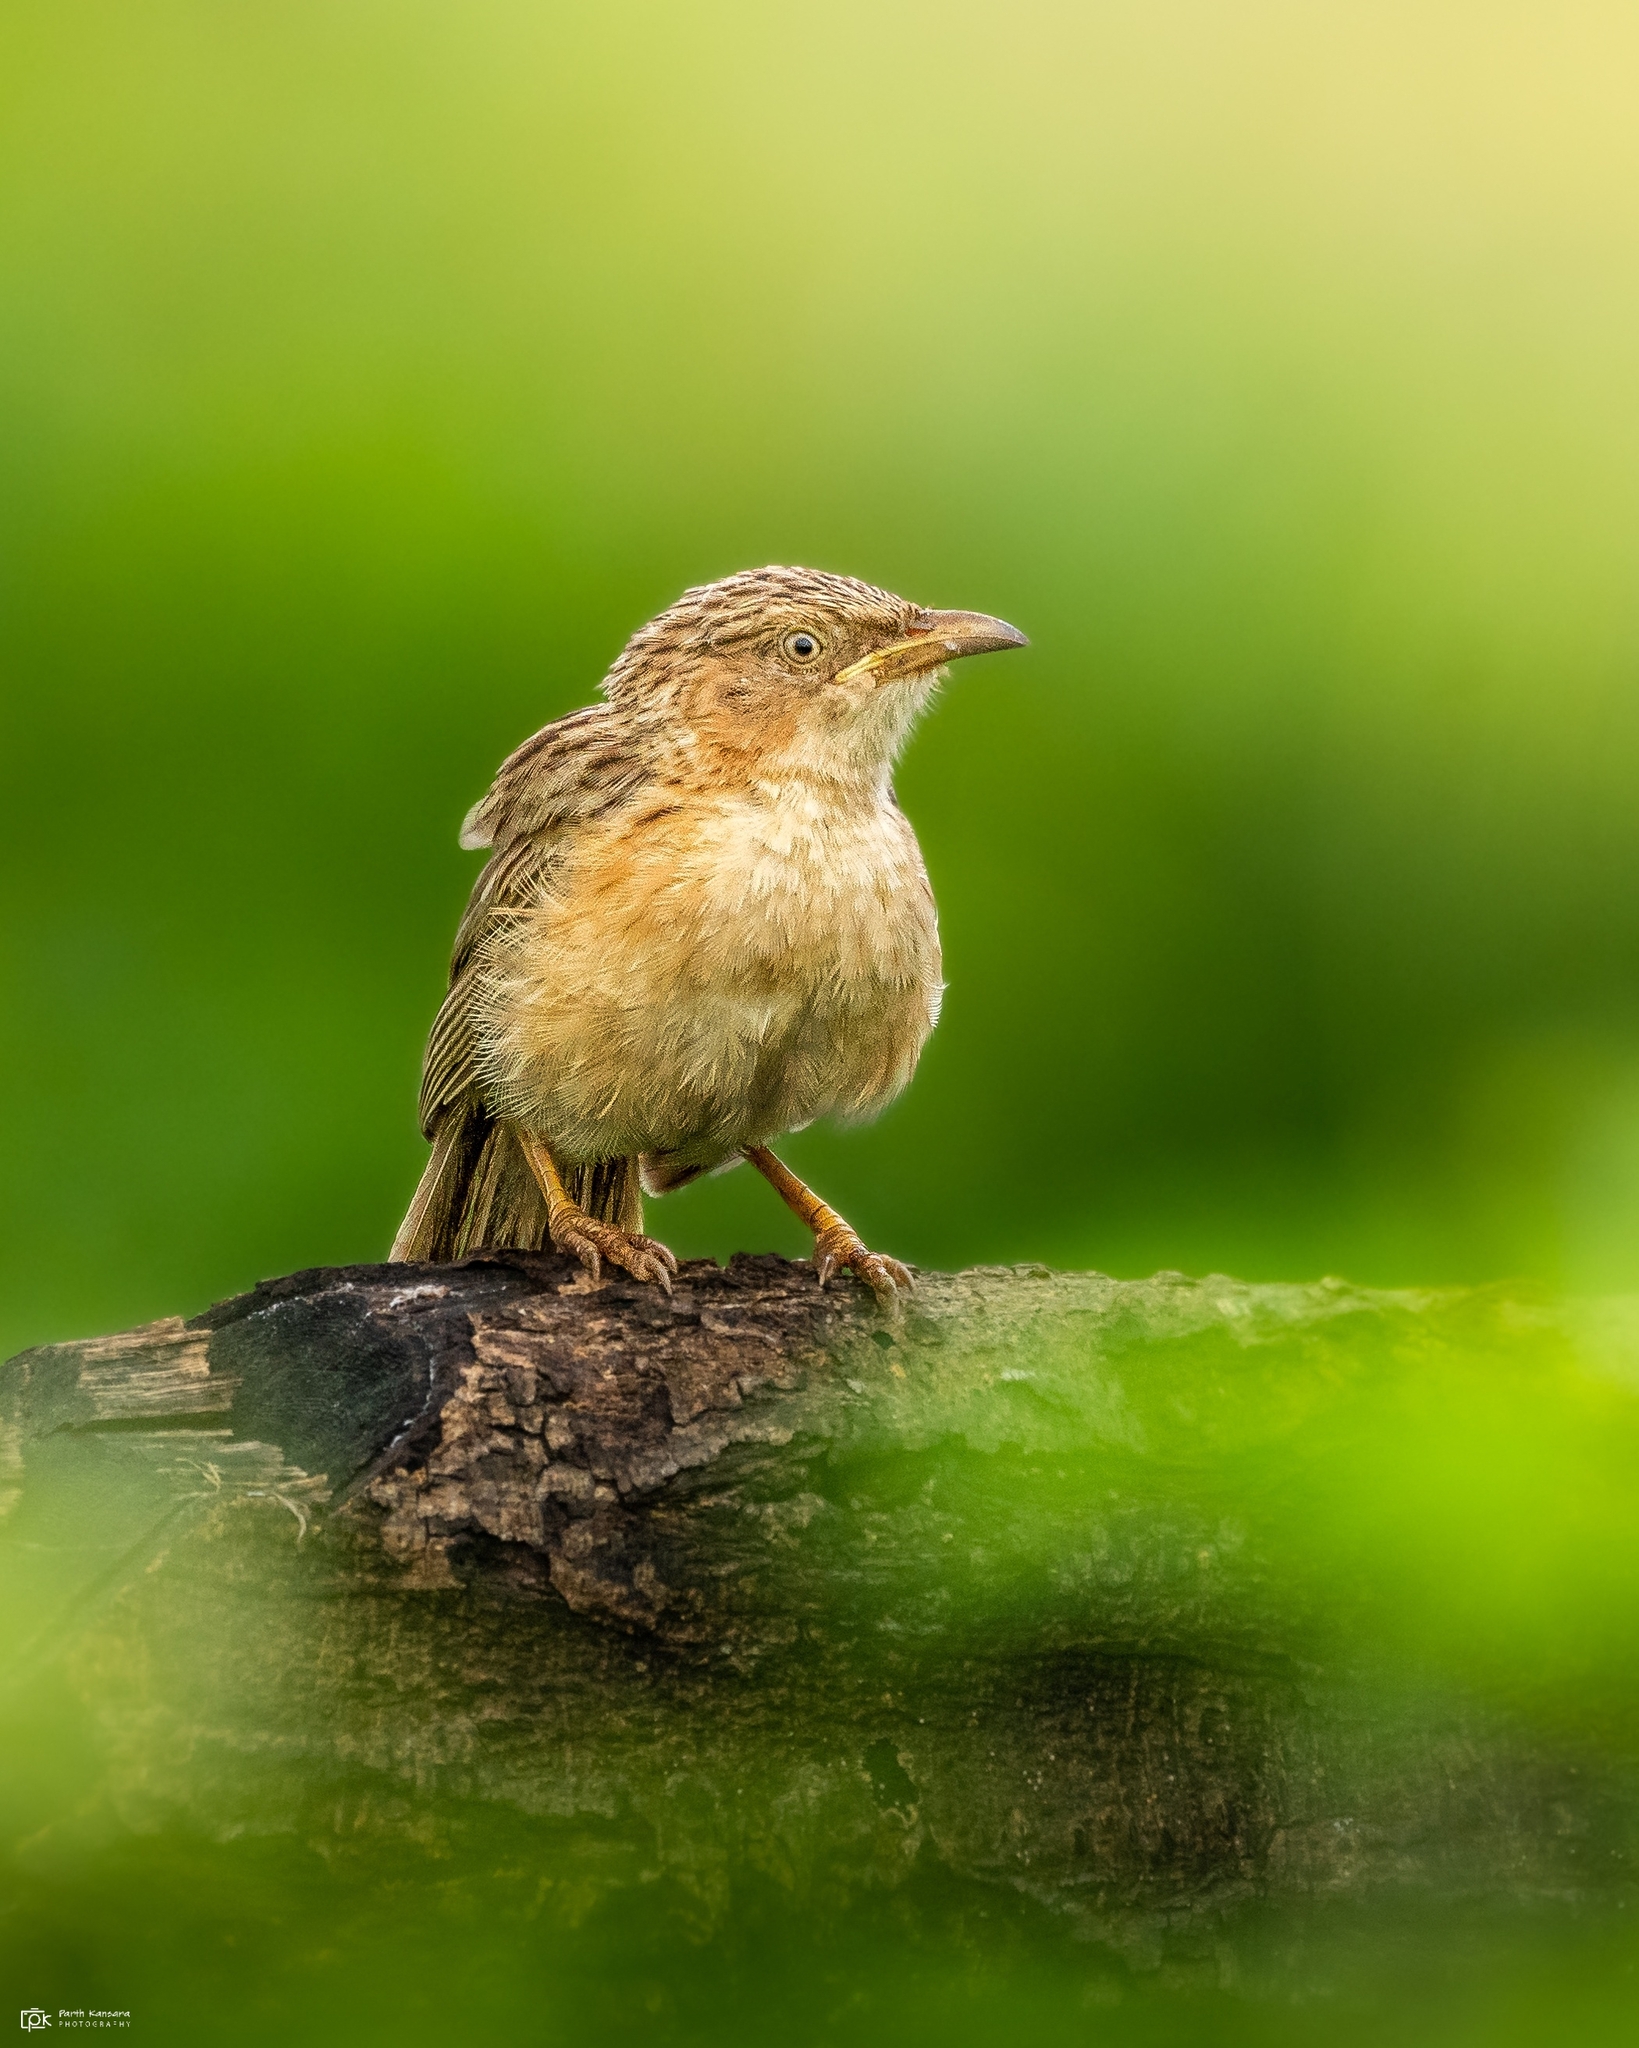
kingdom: Animalia
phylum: Chordata
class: Aves
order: Passeriformes
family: Leiothrichidae
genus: Turdoides
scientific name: Turdoides caudata
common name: Common babbler
